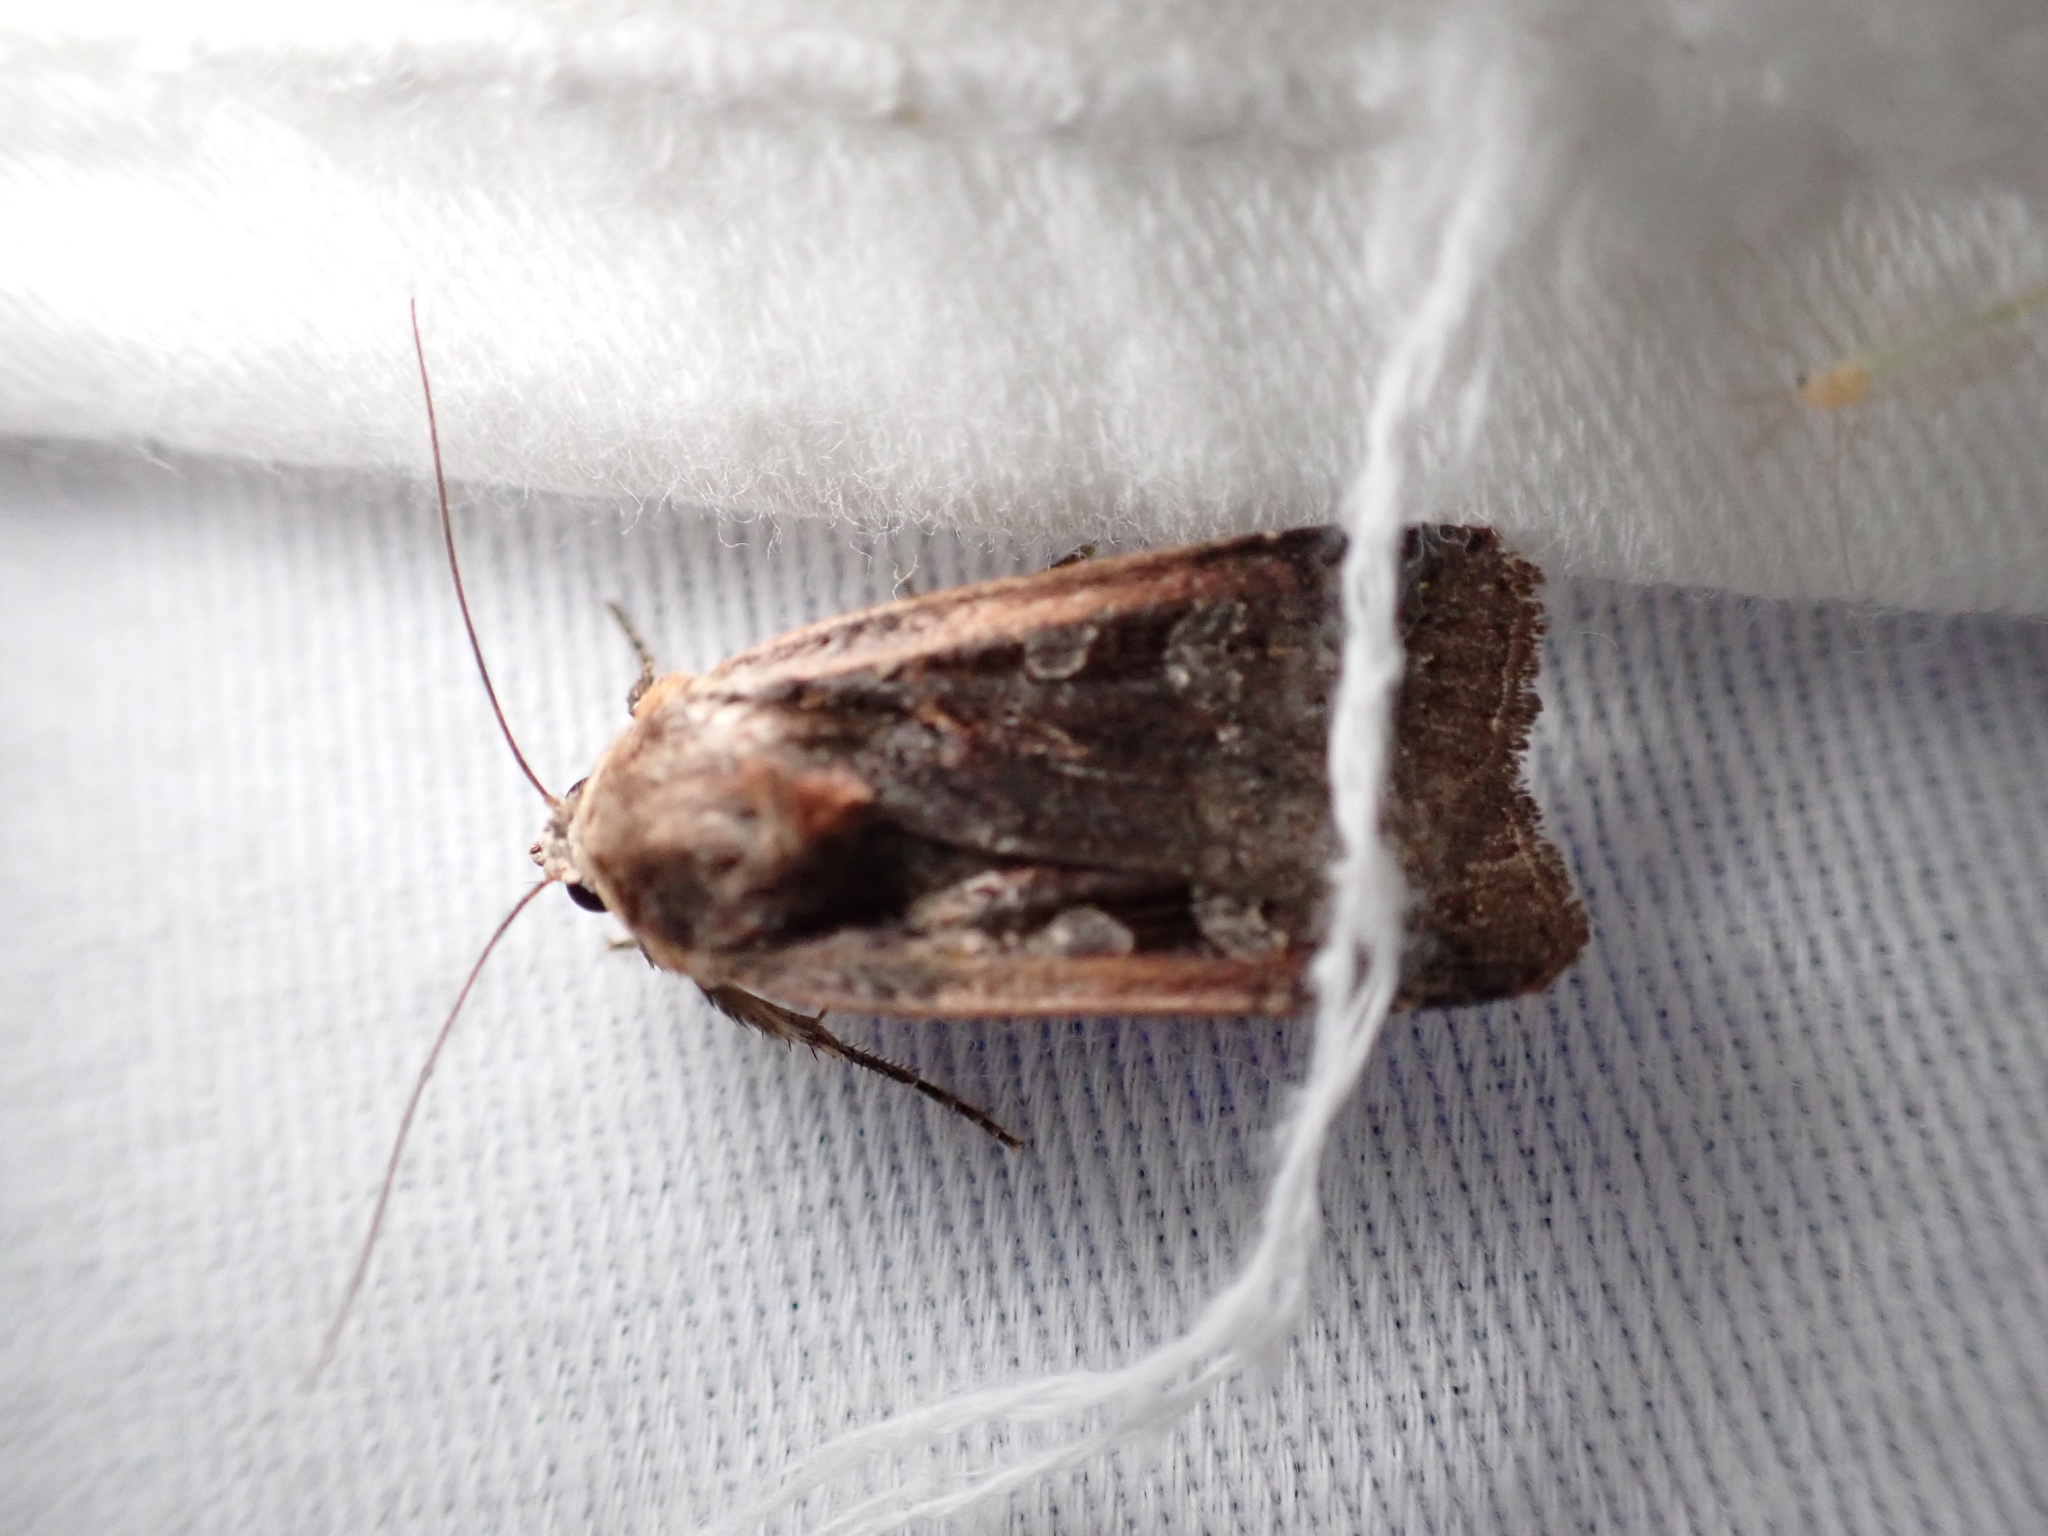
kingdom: Animalia
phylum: Arthropoda
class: Insecta
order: Lepidoptera
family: Noctuidae
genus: Parabagrotis
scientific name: Parabagrotis exsertistigma
